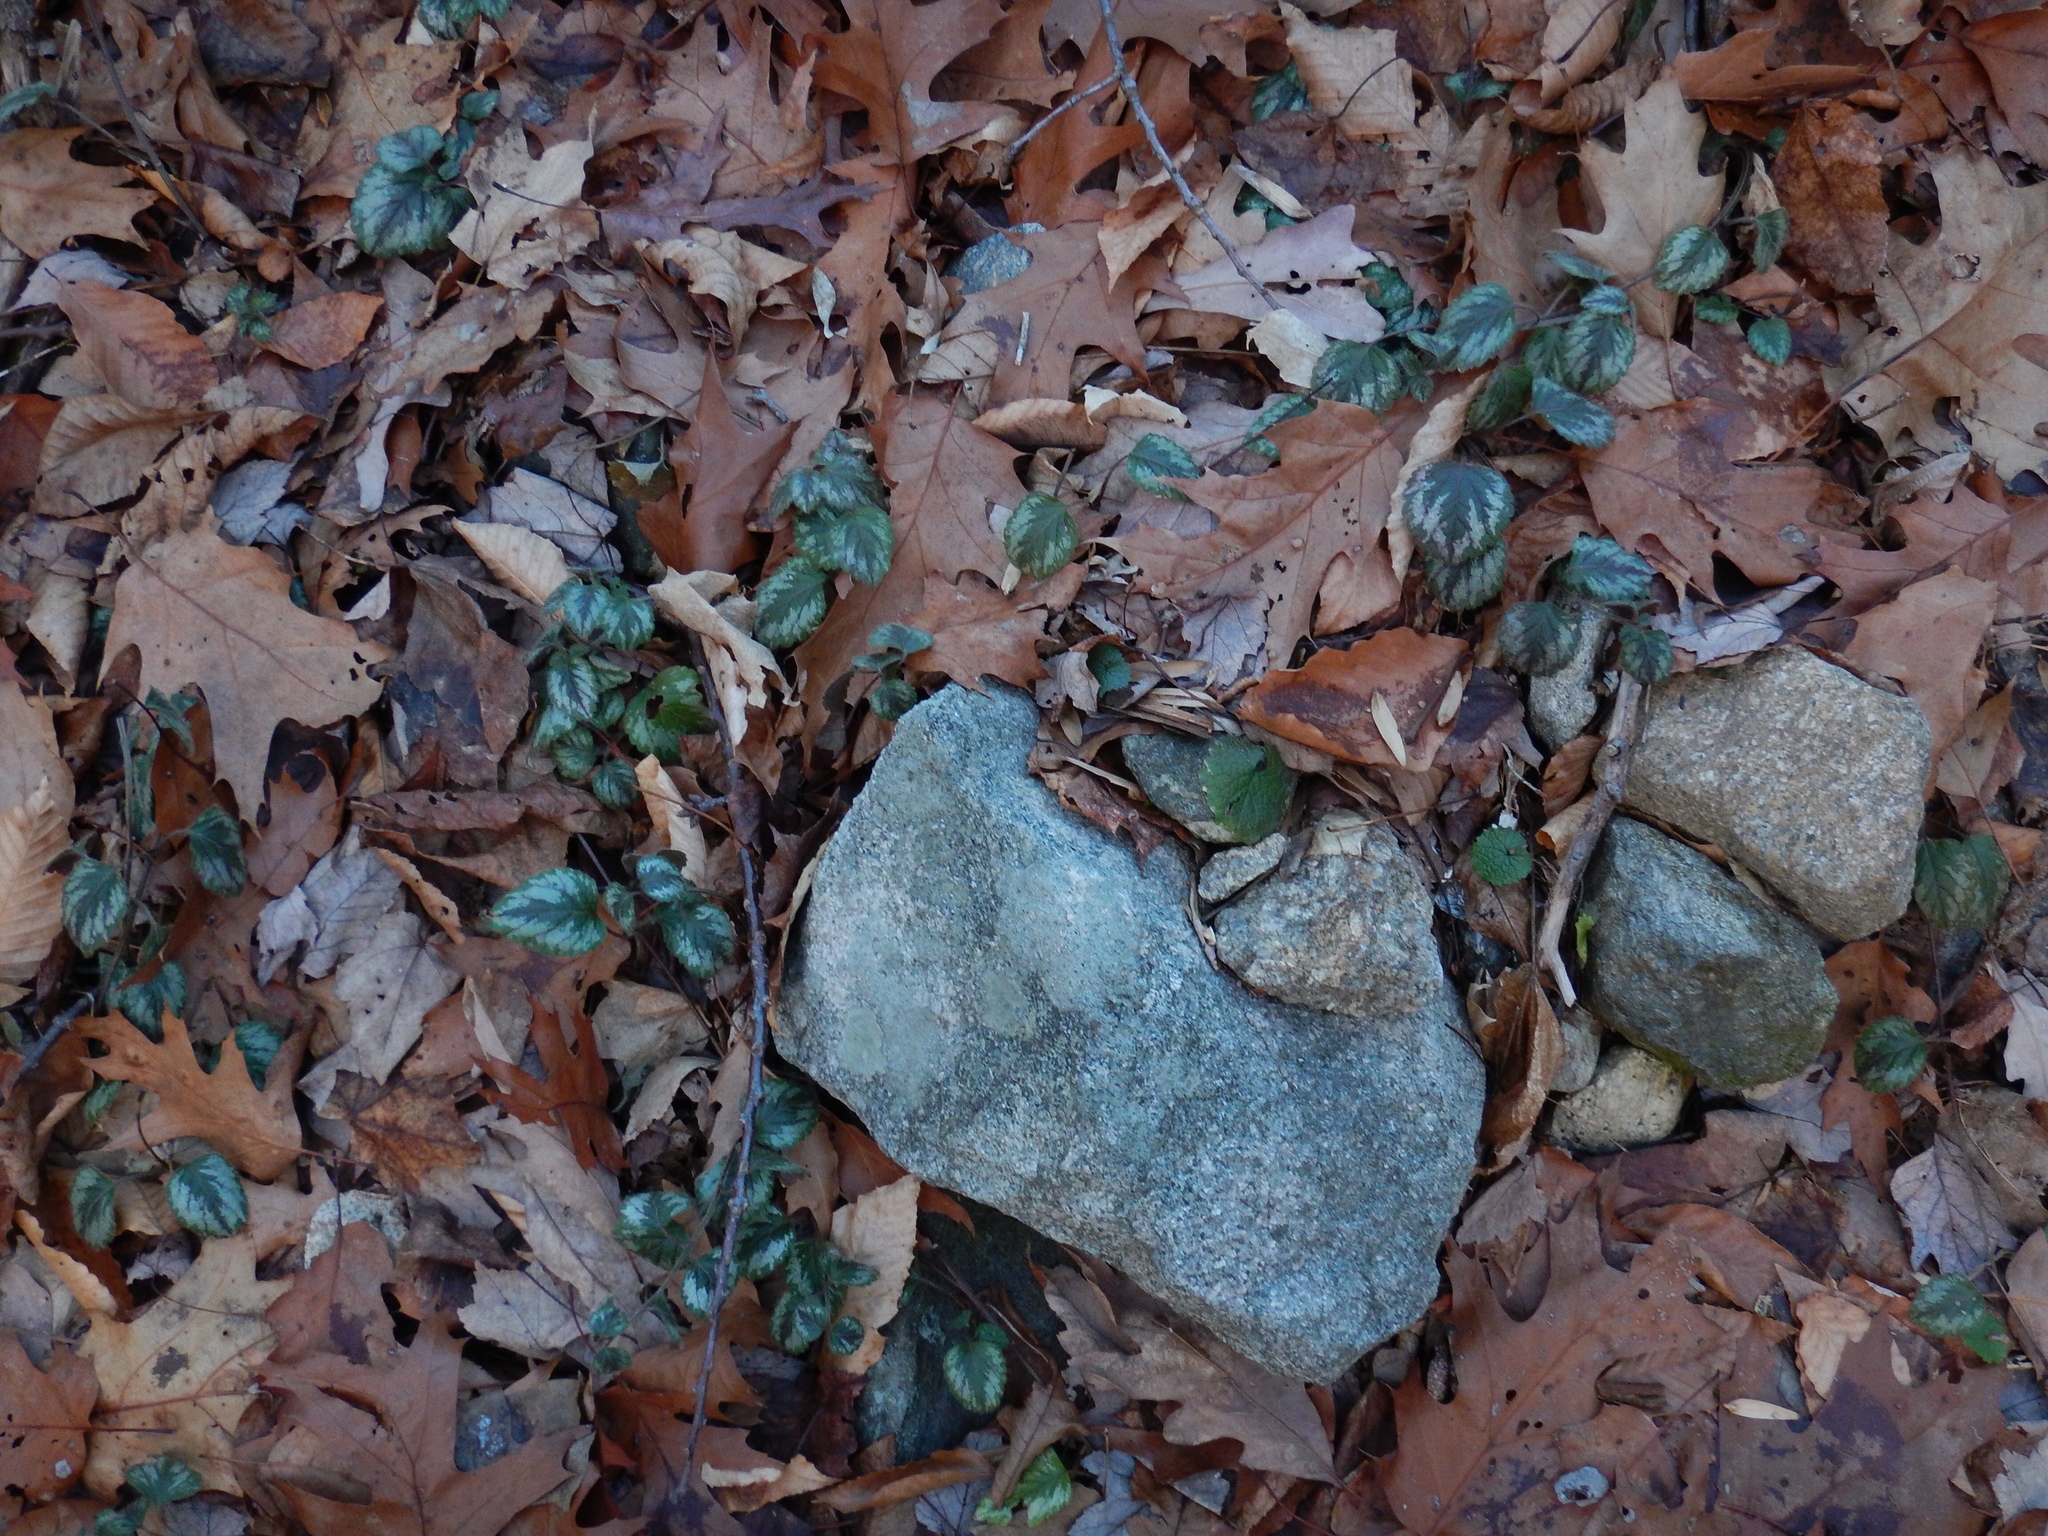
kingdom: Plantae
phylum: Tracheophyta
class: Magnoliopsida
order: Lamiales
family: Lamiaceae
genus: Lamium
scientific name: Lamium galeobdolon
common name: Yellow archangel
